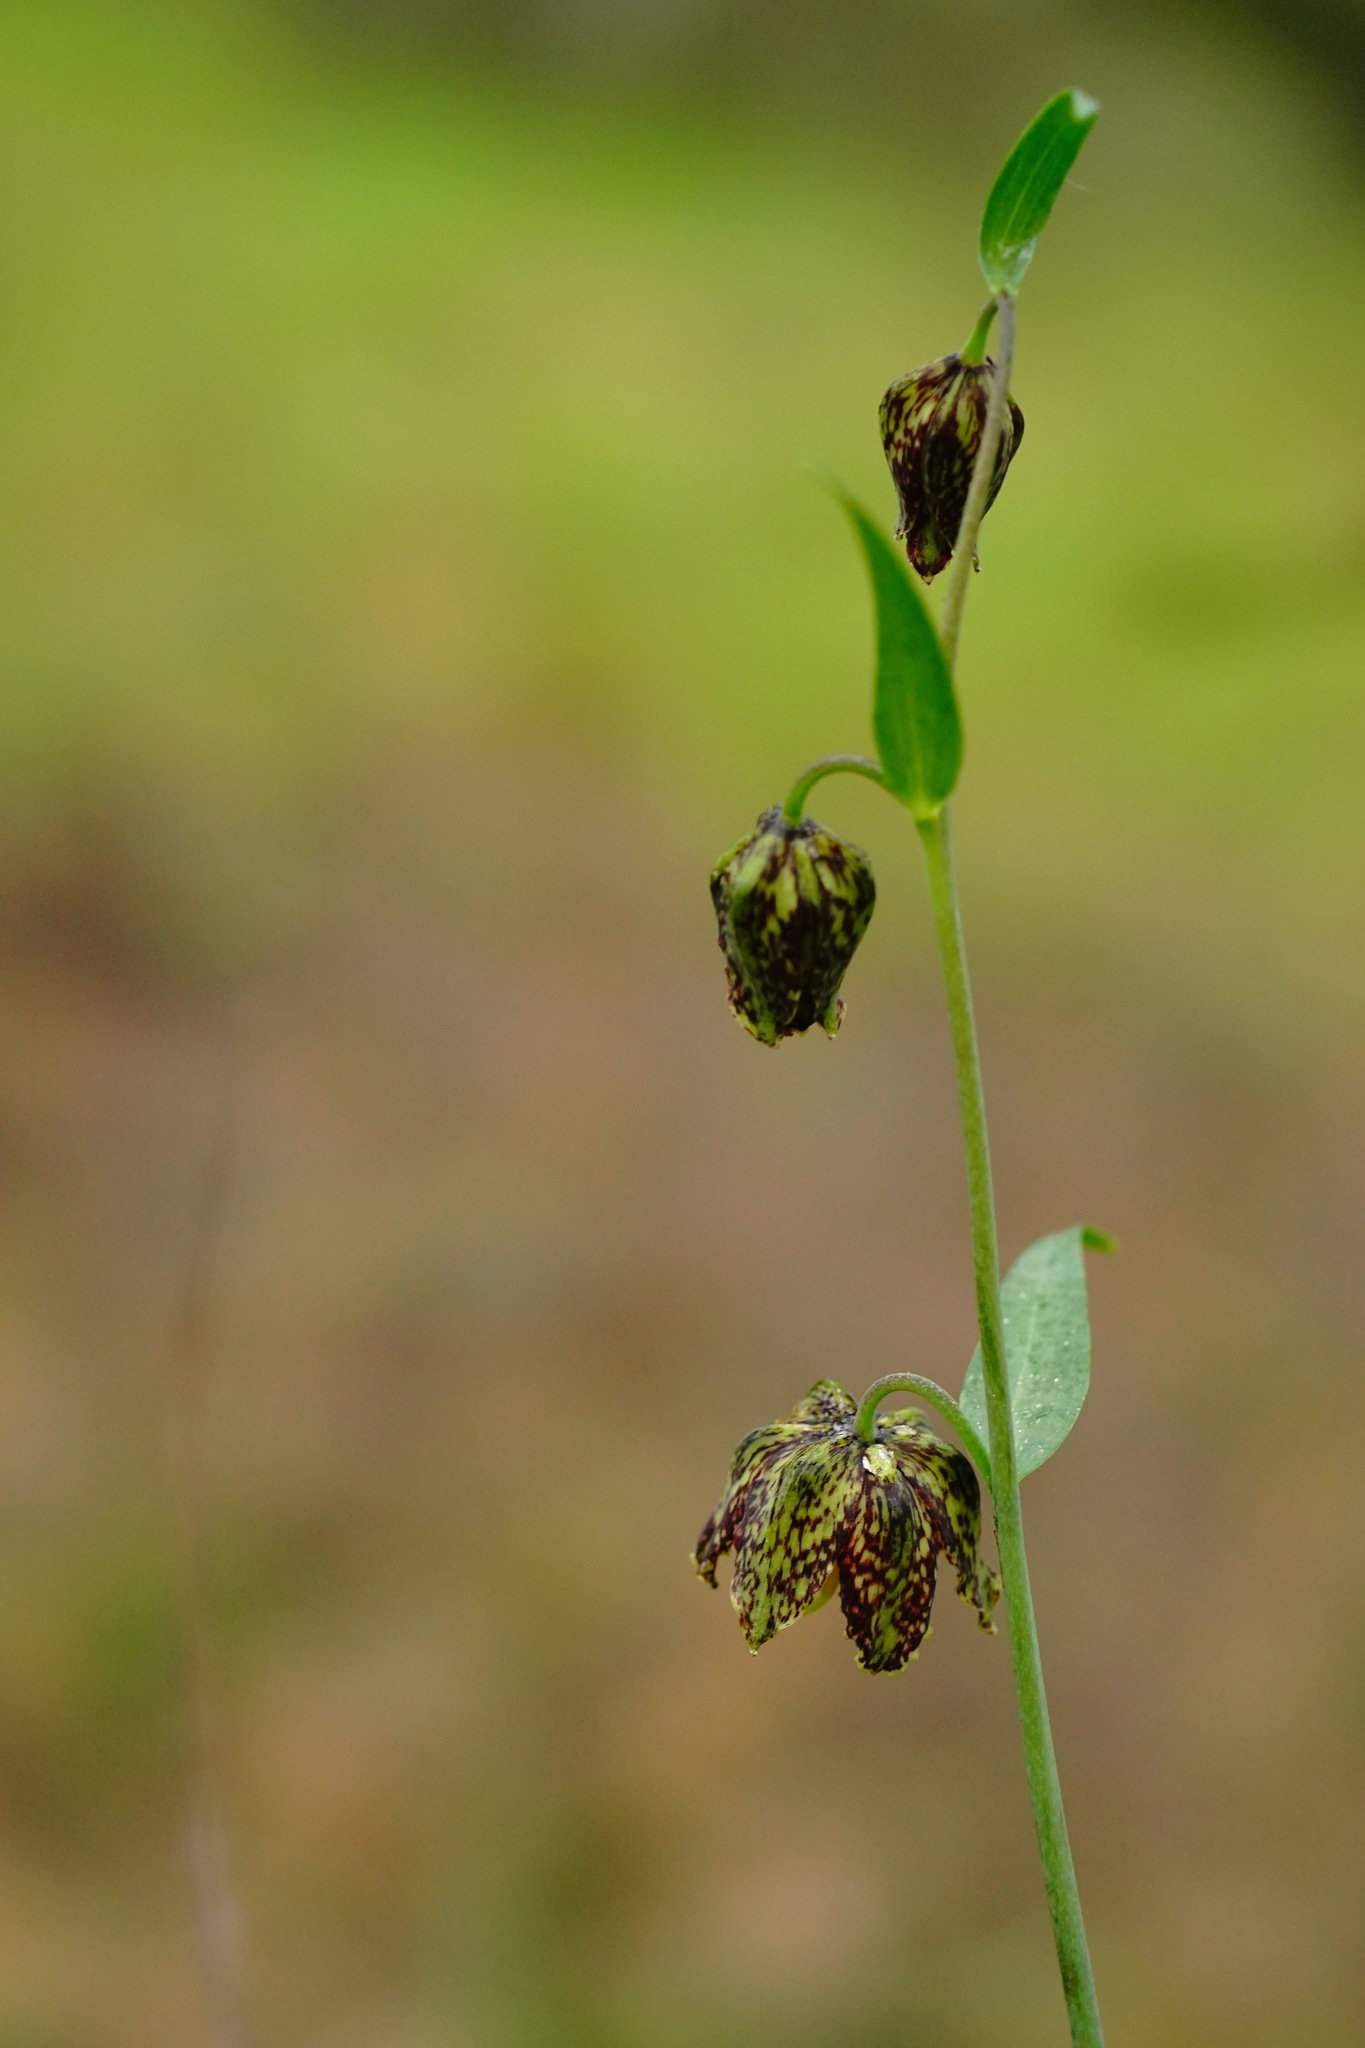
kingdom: Plantae
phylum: Tracheophyta
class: Liliopsida
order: Liliales
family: Liliaceae
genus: Fritillaria
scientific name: Fritillaria affinis
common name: Ojai fritillary
